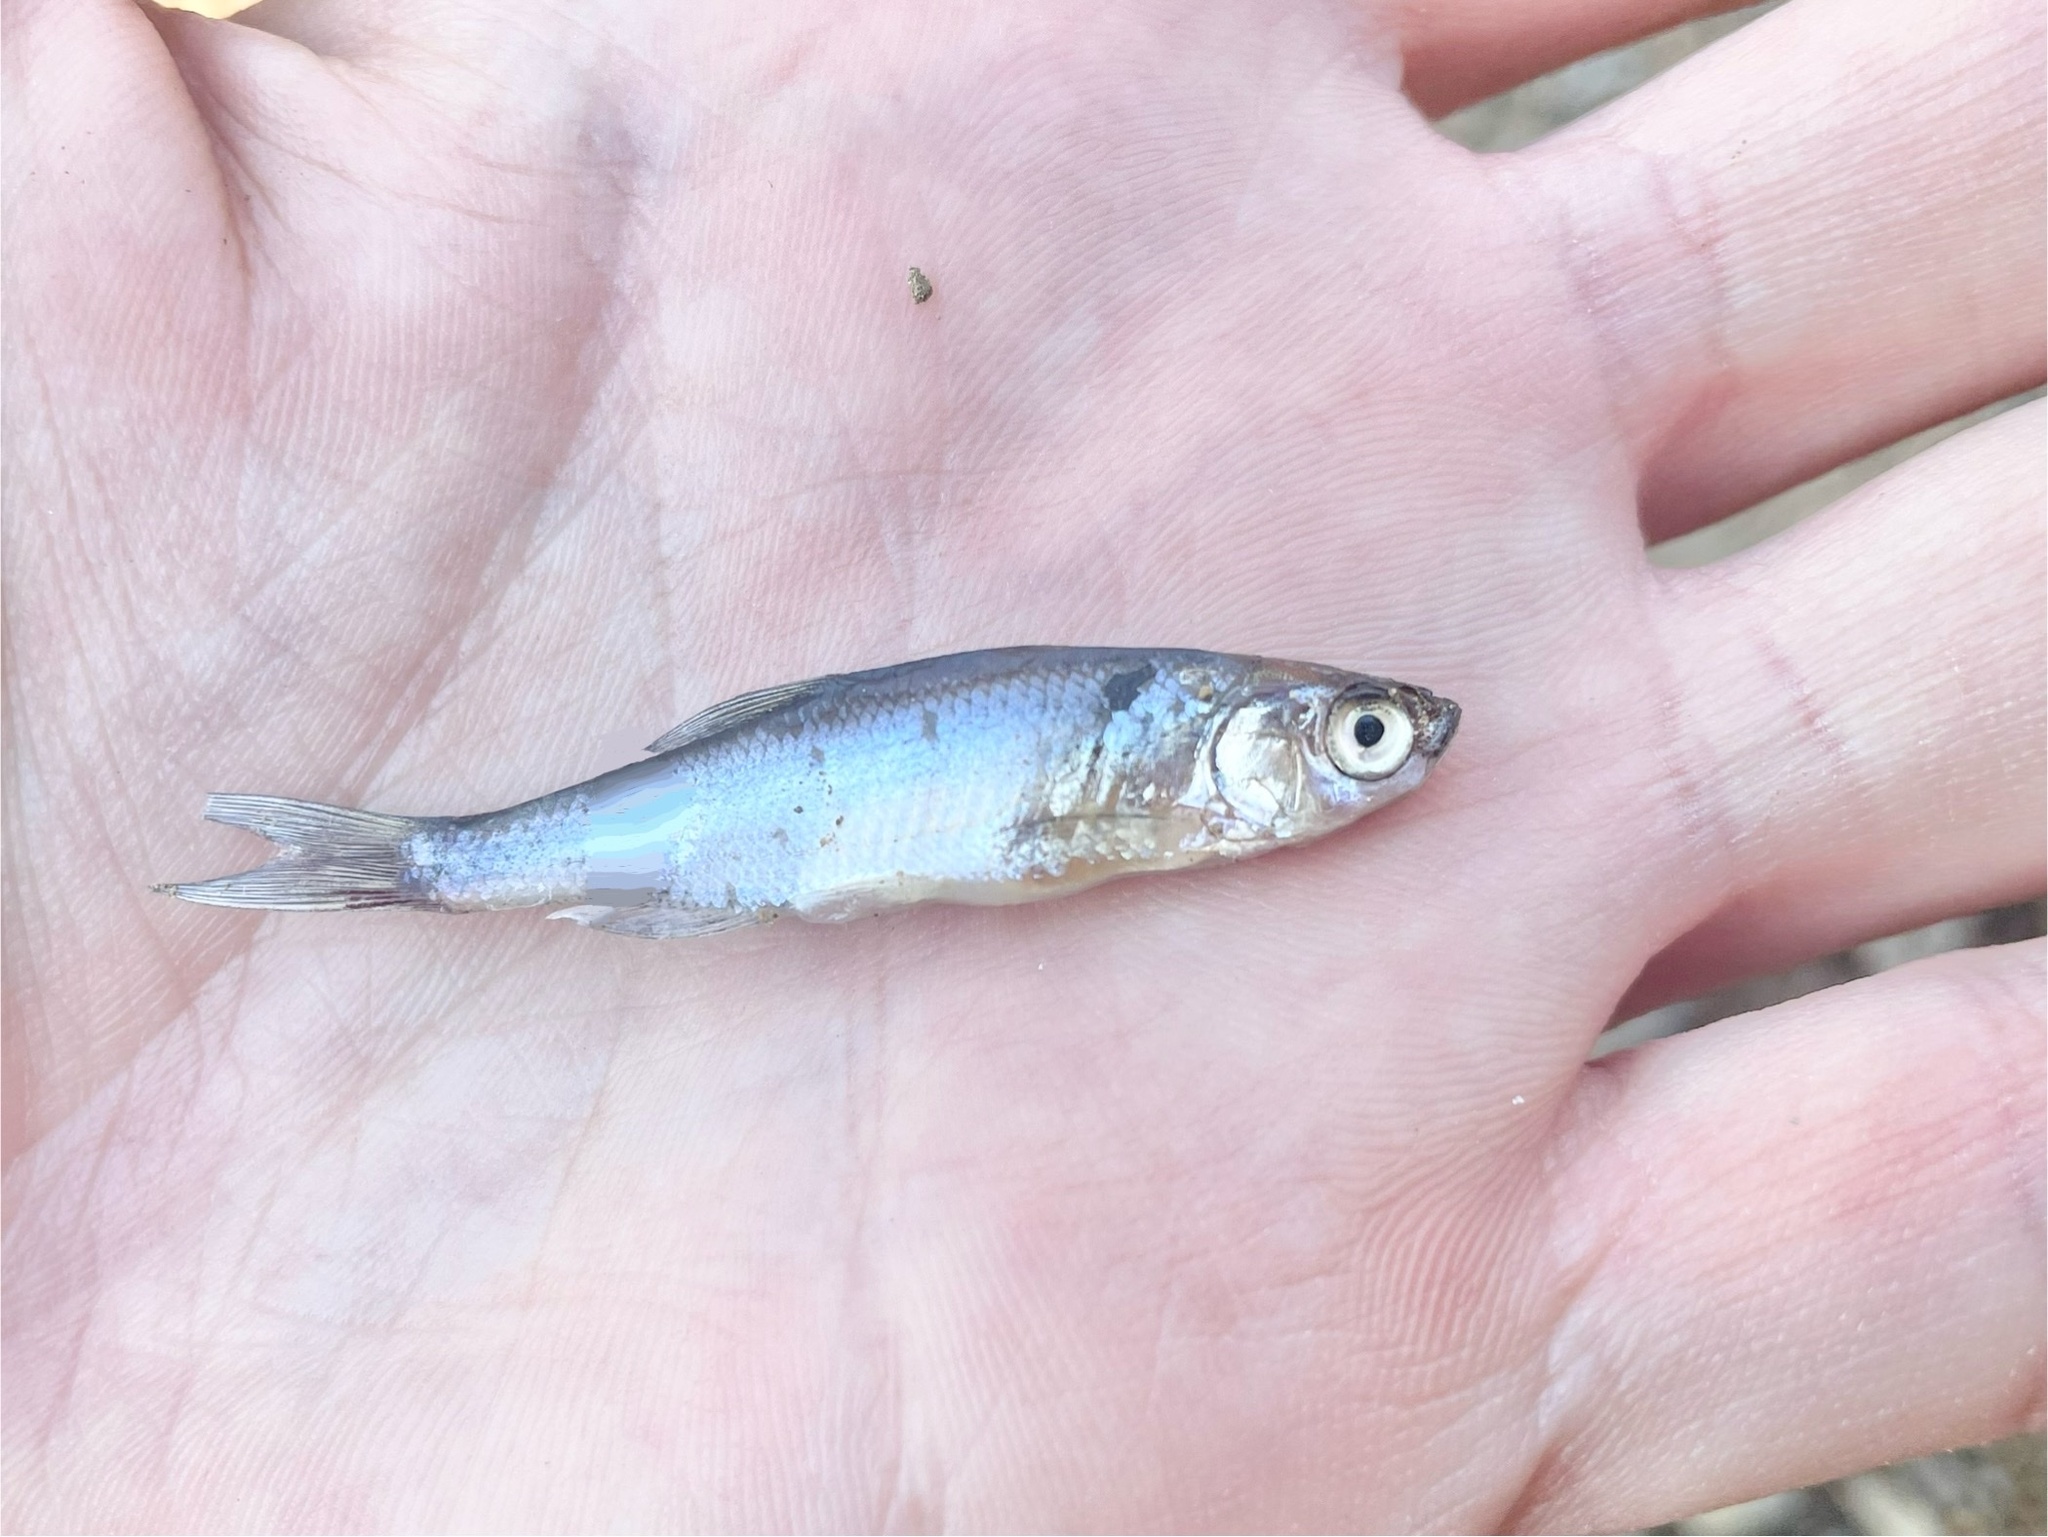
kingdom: Animalia
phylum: Chordata
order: Cypriniformes
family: Cyprinidae
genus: Notemigonus
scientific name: Notemigonus crysoleucas
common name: Golden shiner
